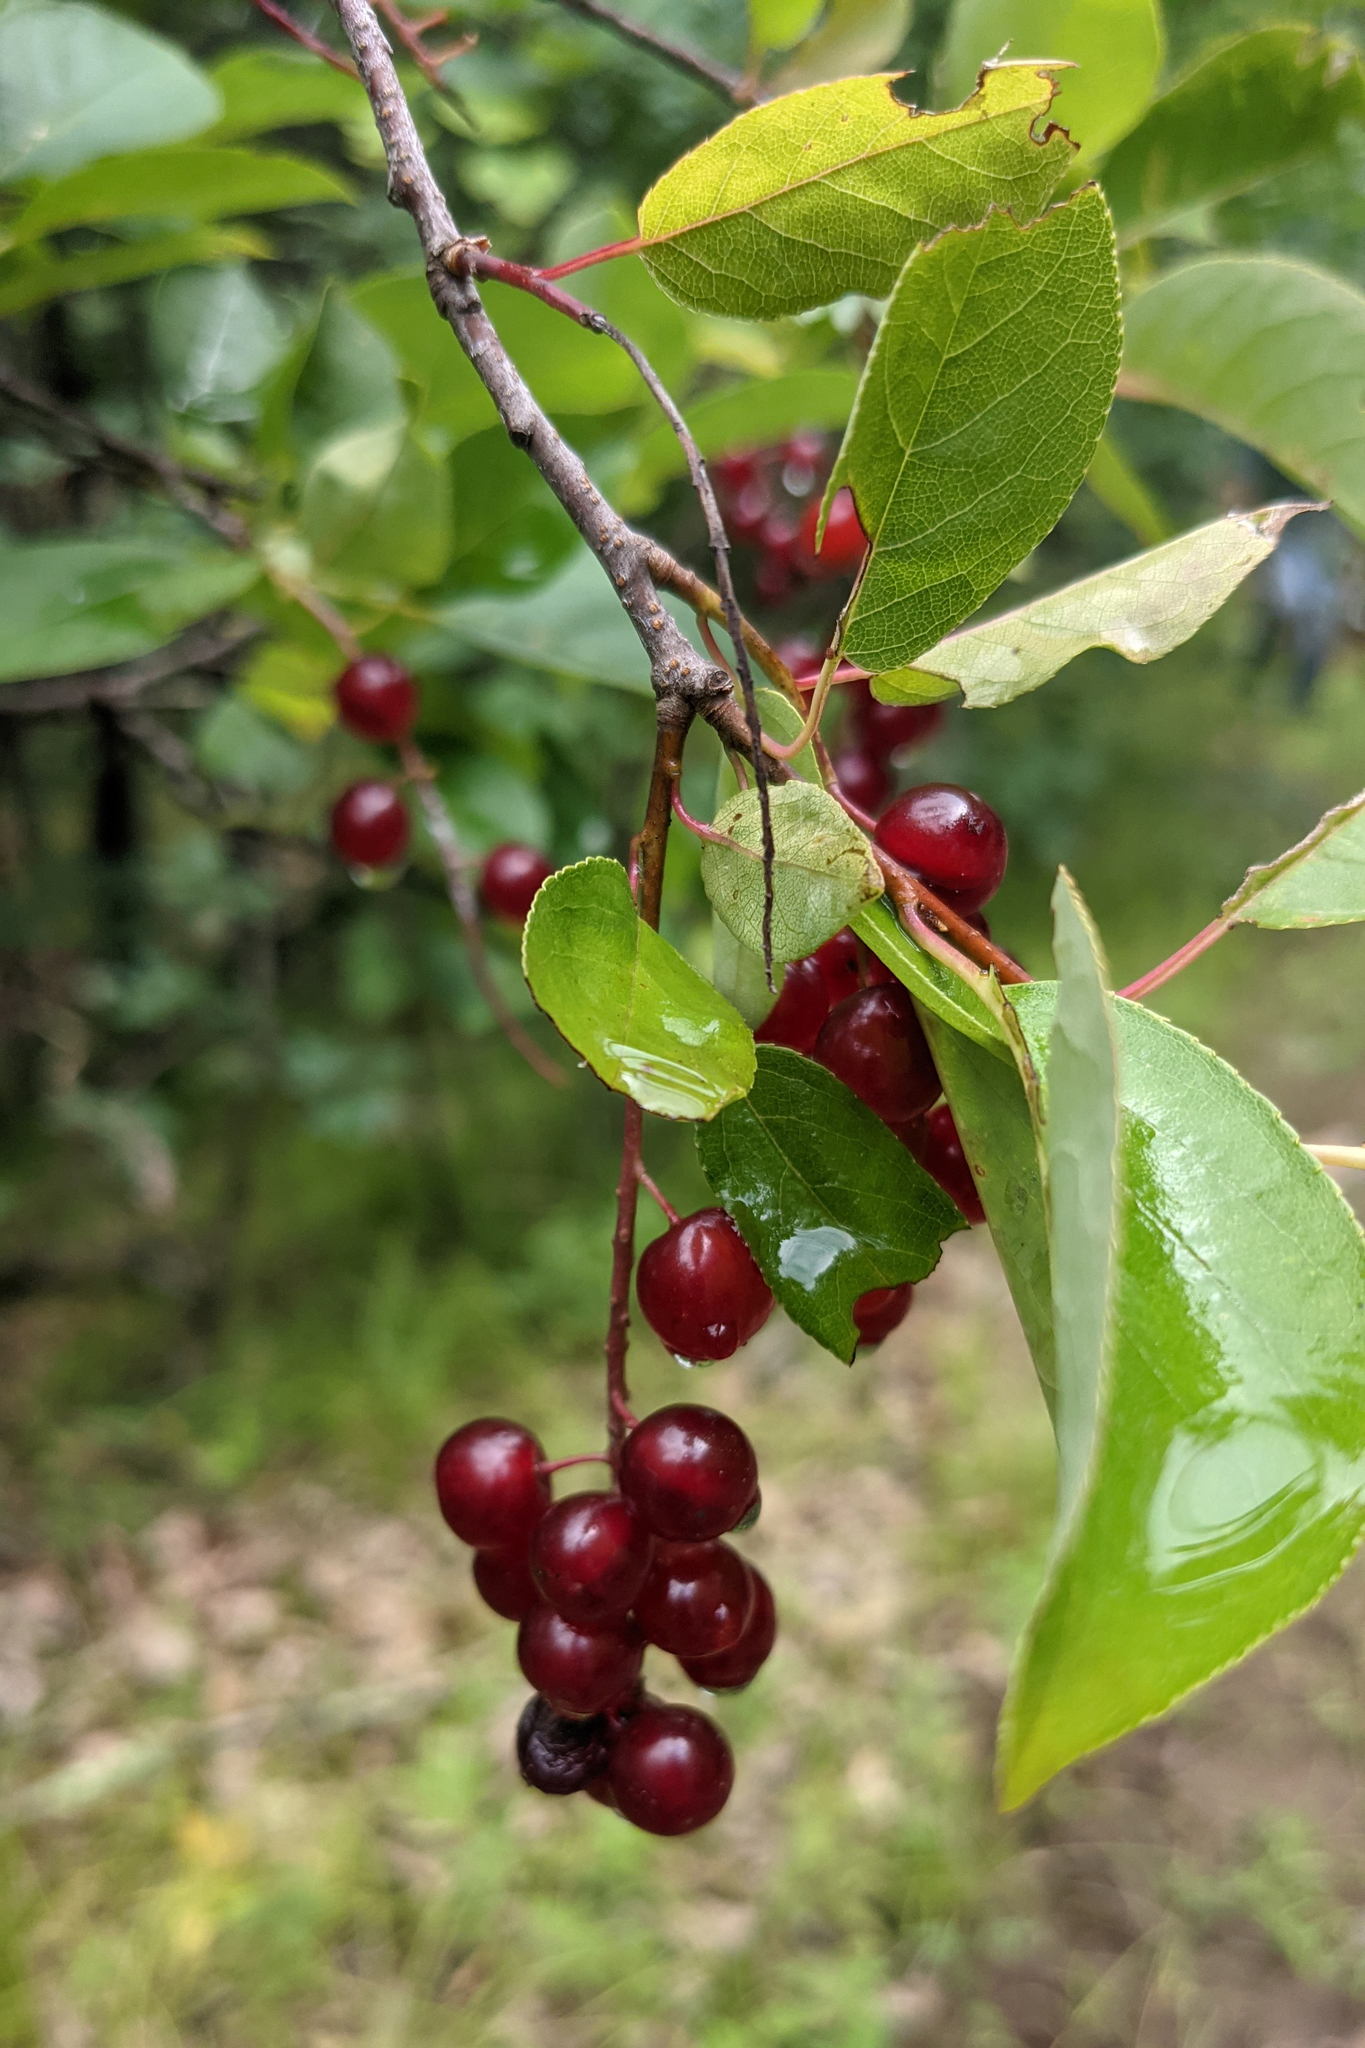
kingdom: Plantae
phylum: Tracheophyta
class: Magnoliopsida
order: Rosales
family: Rosaceae
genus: Prunus
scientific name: Prunus virginiana
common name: Chokecherry
